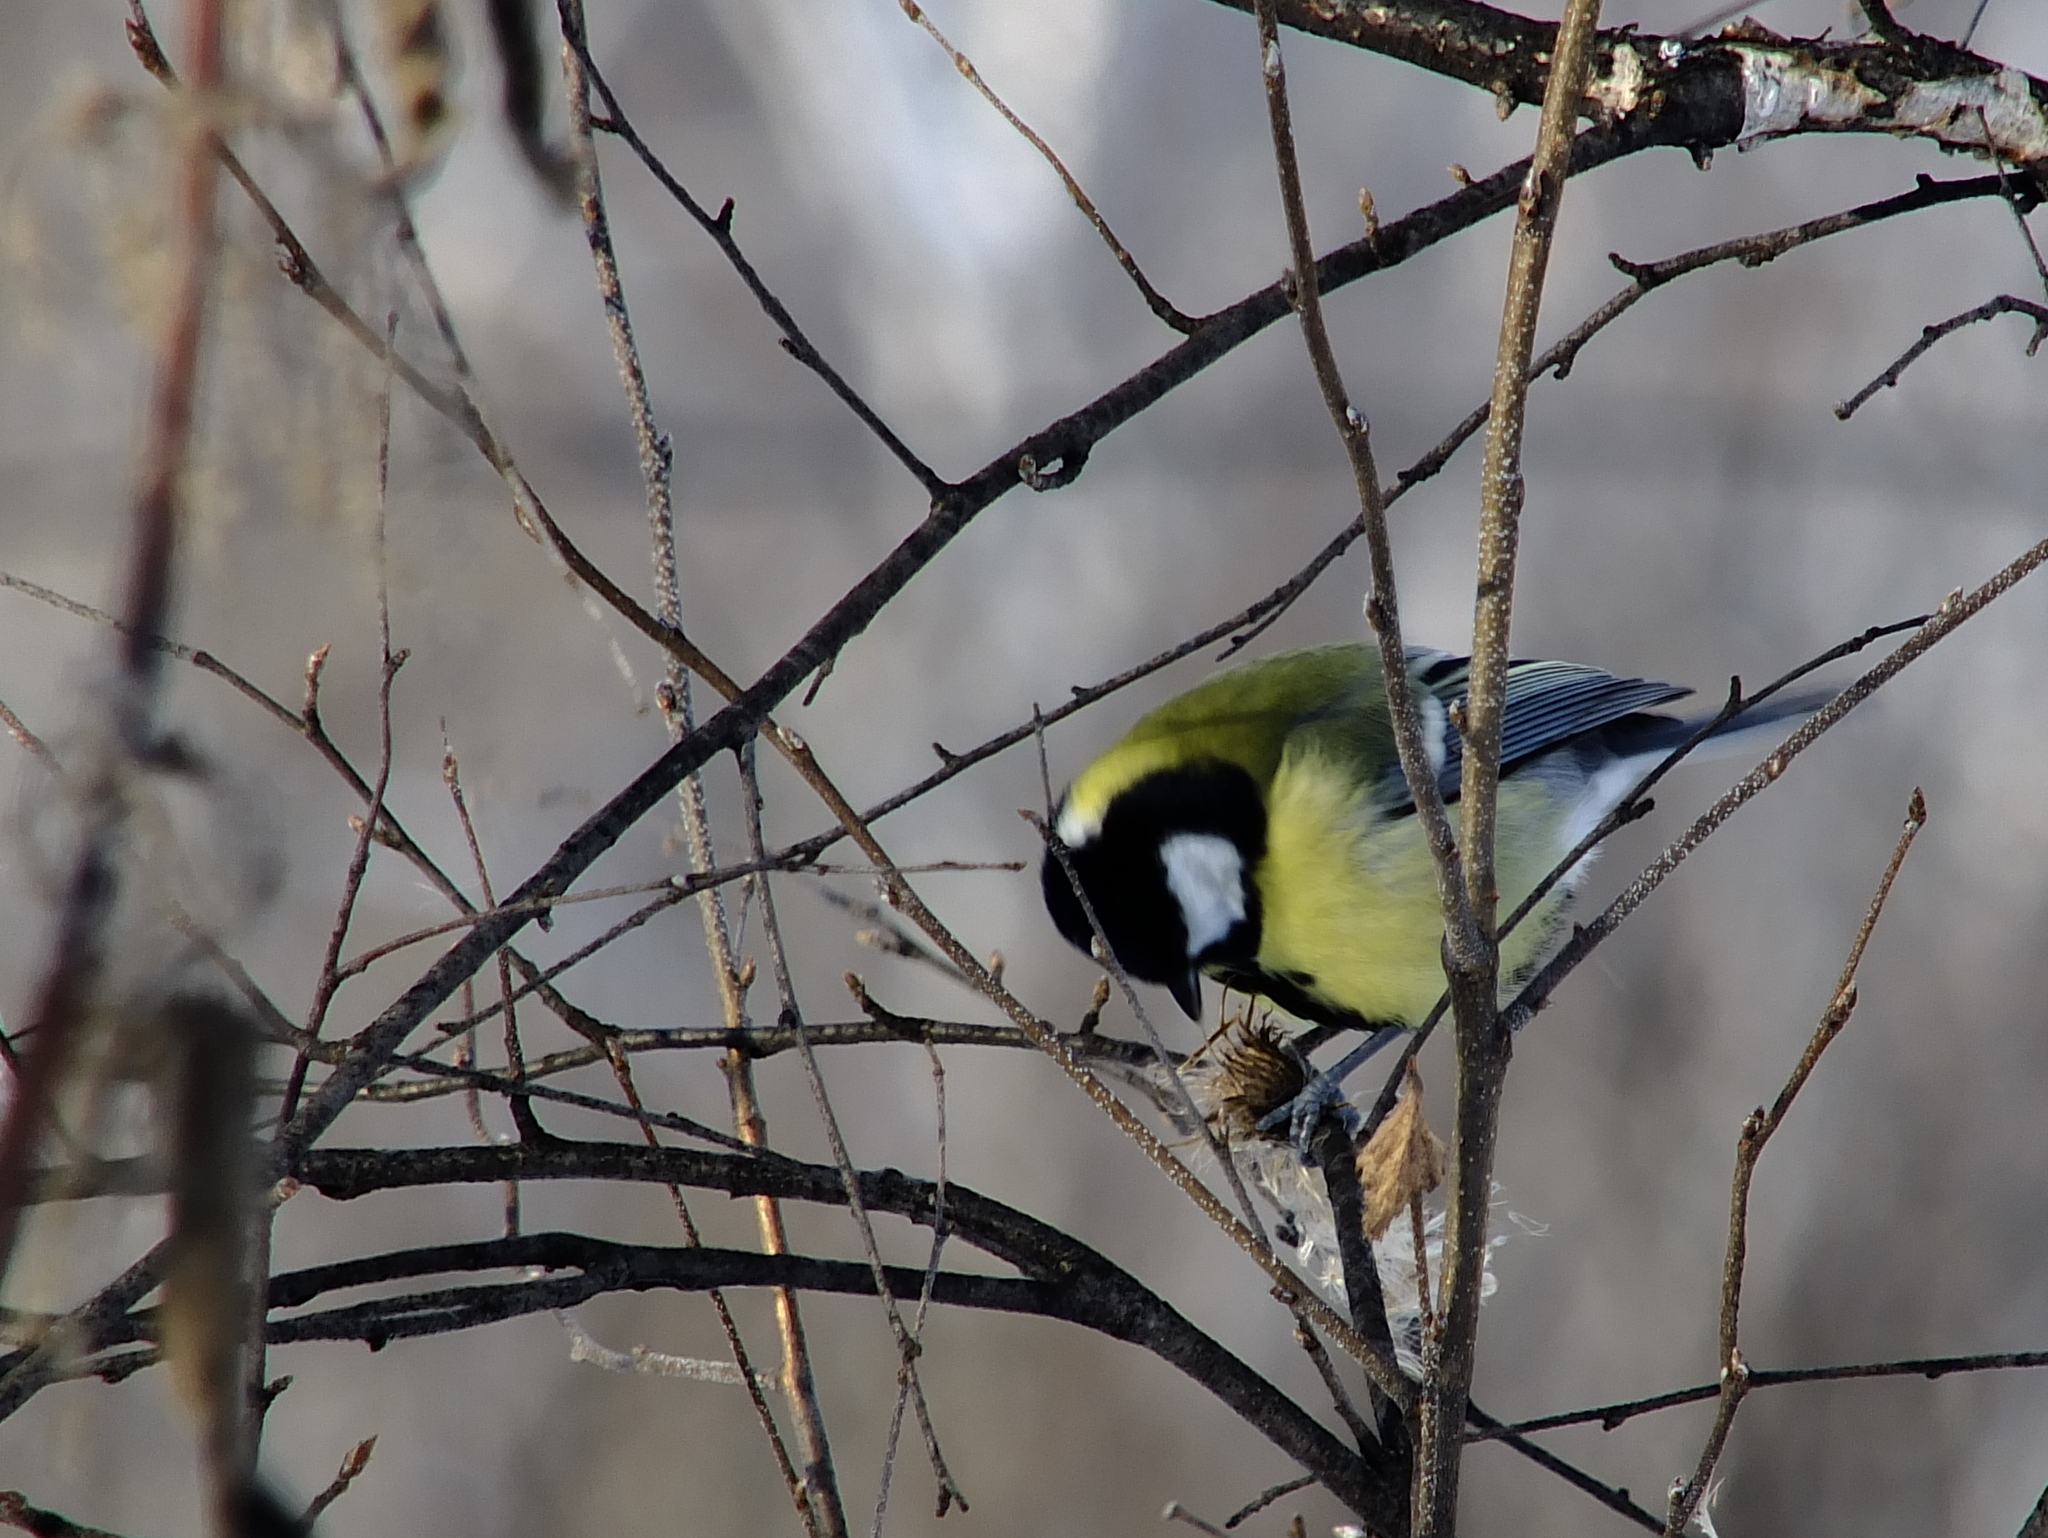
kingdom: Animalia
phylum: Chordata
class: Aves
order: Passeriformes
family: Paridae
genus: Parus
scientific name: Parus major
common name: Great tit
